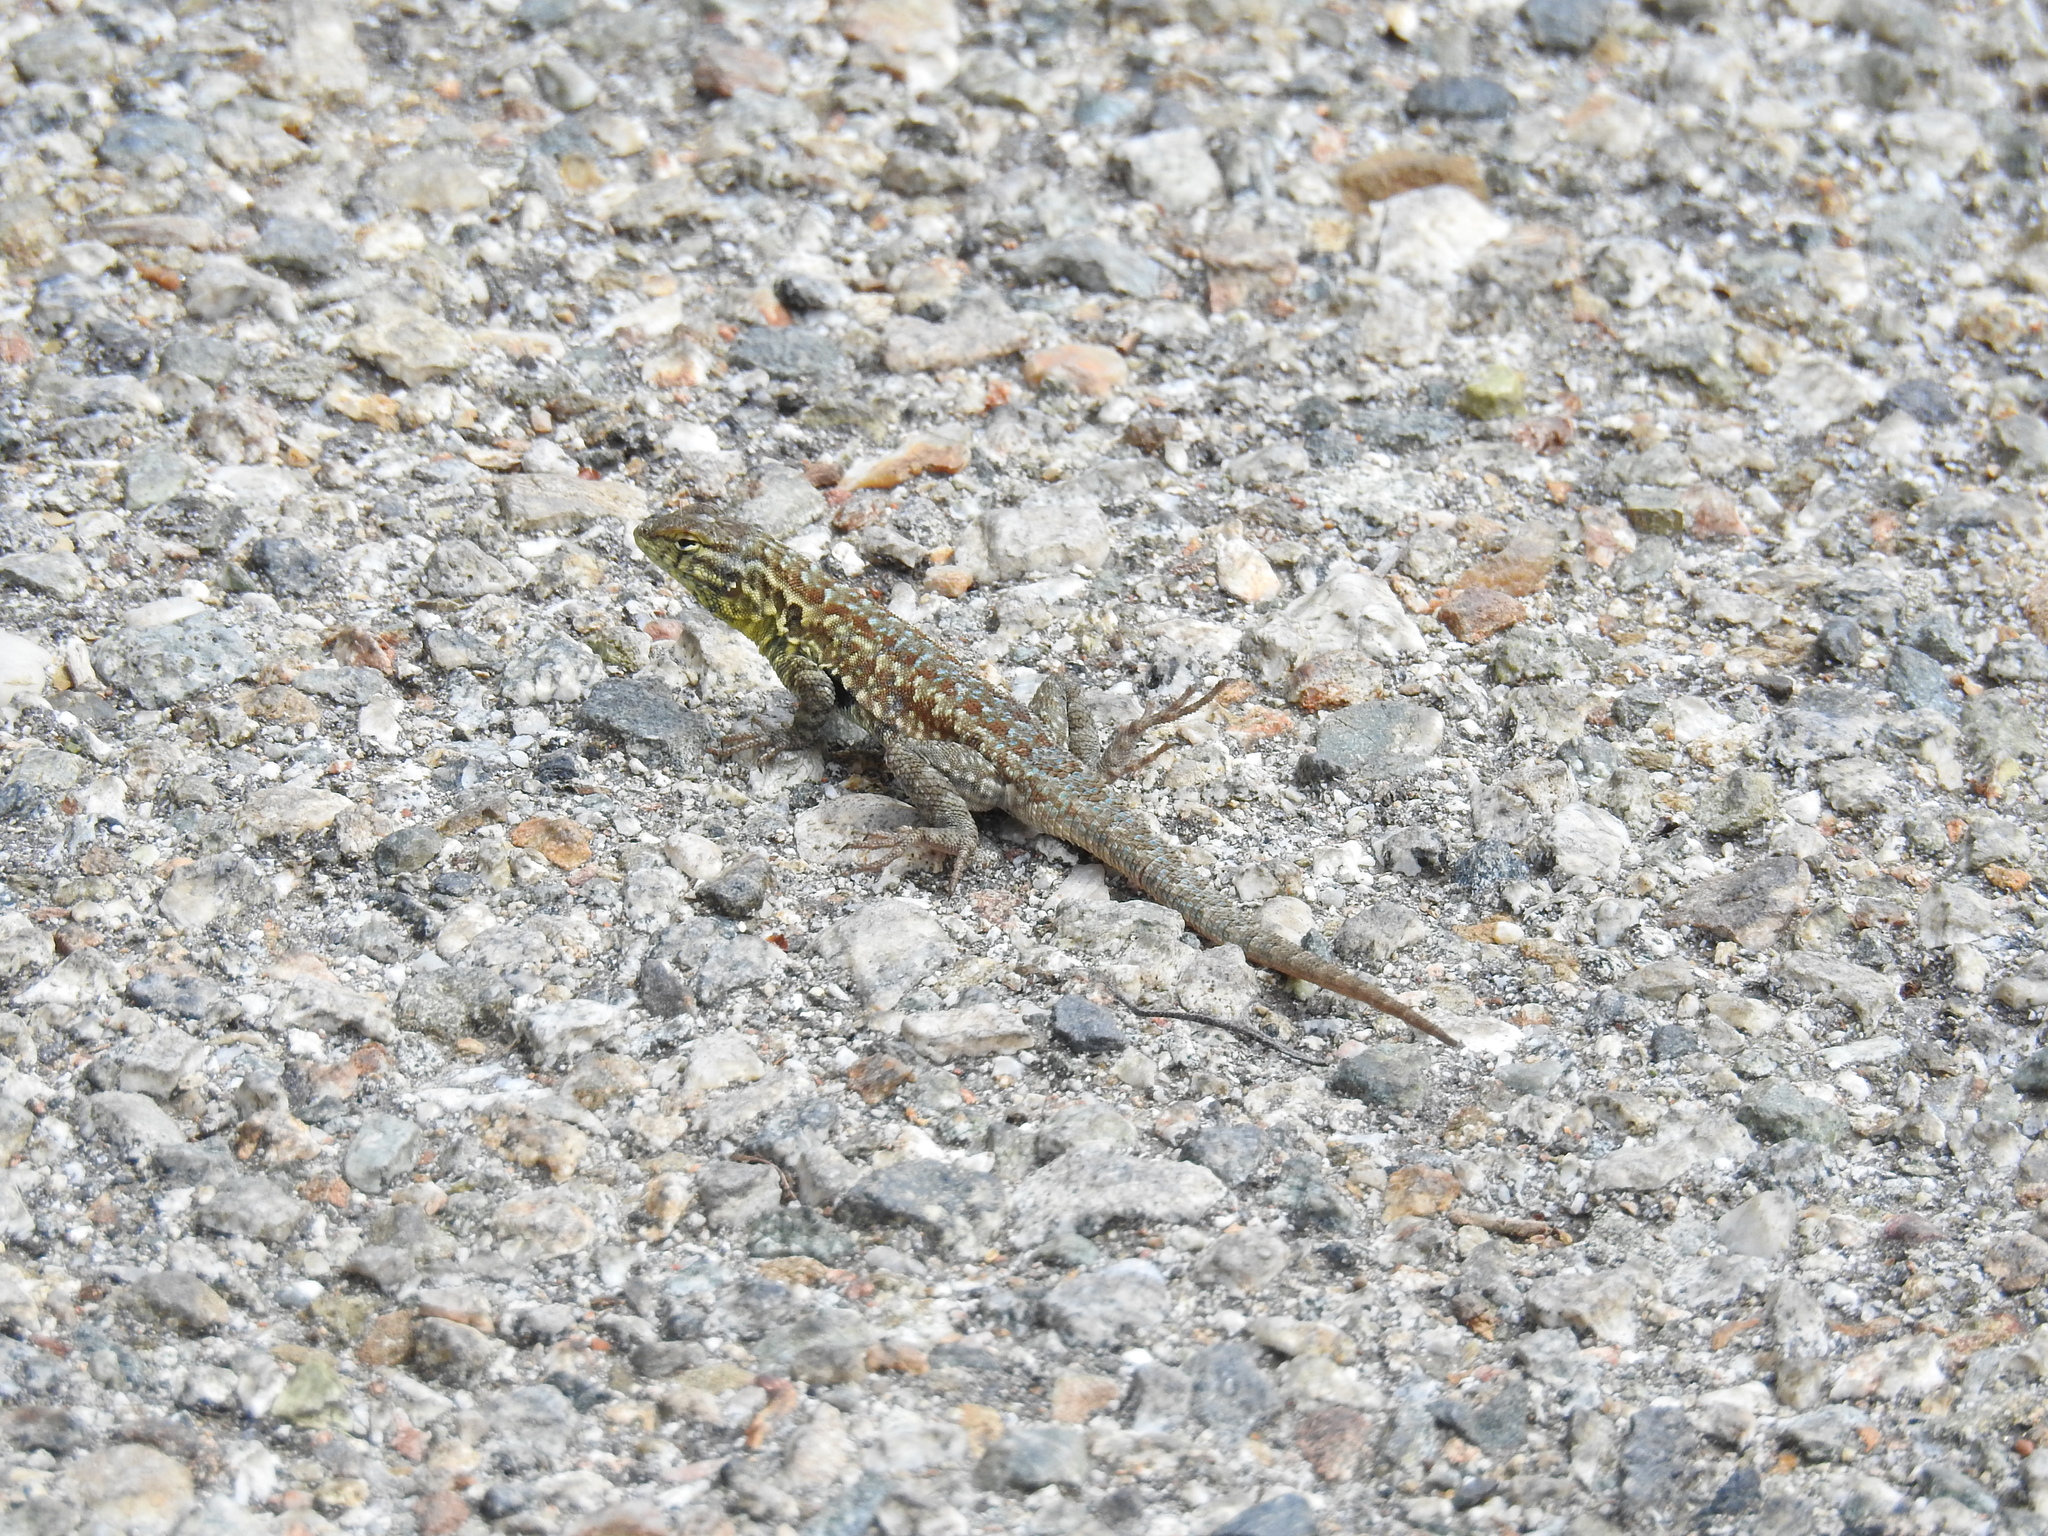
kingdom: Animalia
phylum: Chordata
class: Squamata
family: Phrynosomatidae
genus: Uta
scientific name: Uta stansburiana
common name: Side-blotched lizard
